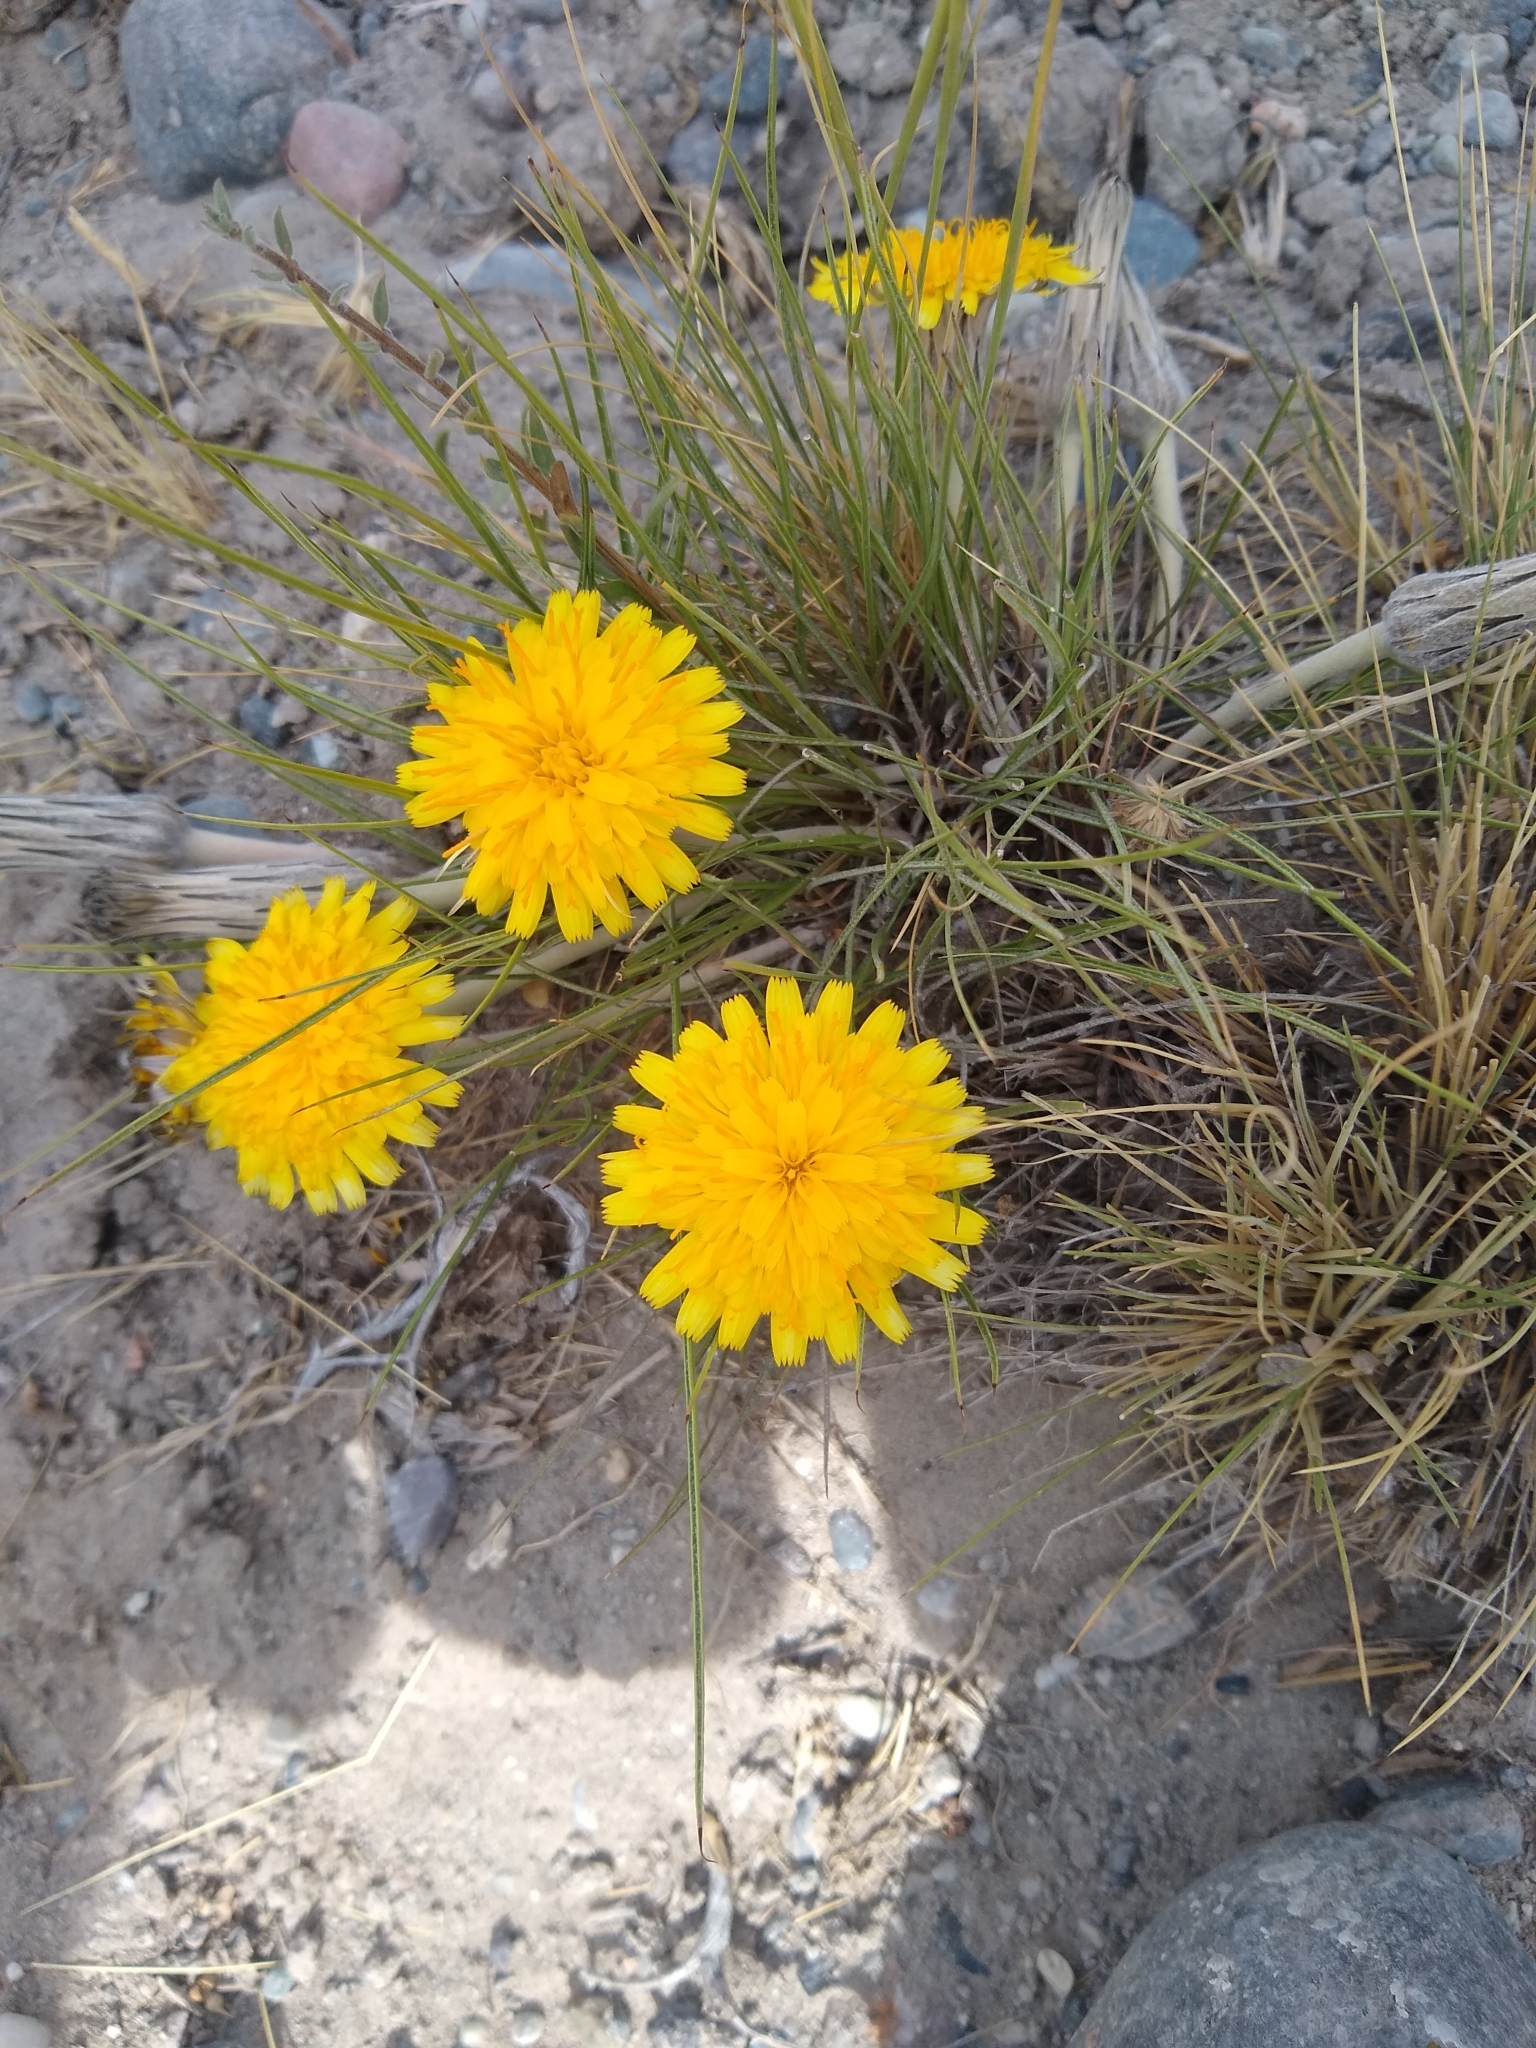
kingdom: Plantae
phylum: Tracheophyta
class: Magnoliopsida
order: Asterales
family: Asteraceae
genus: Hypochaeris
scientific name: Hypochaeris hookeri
